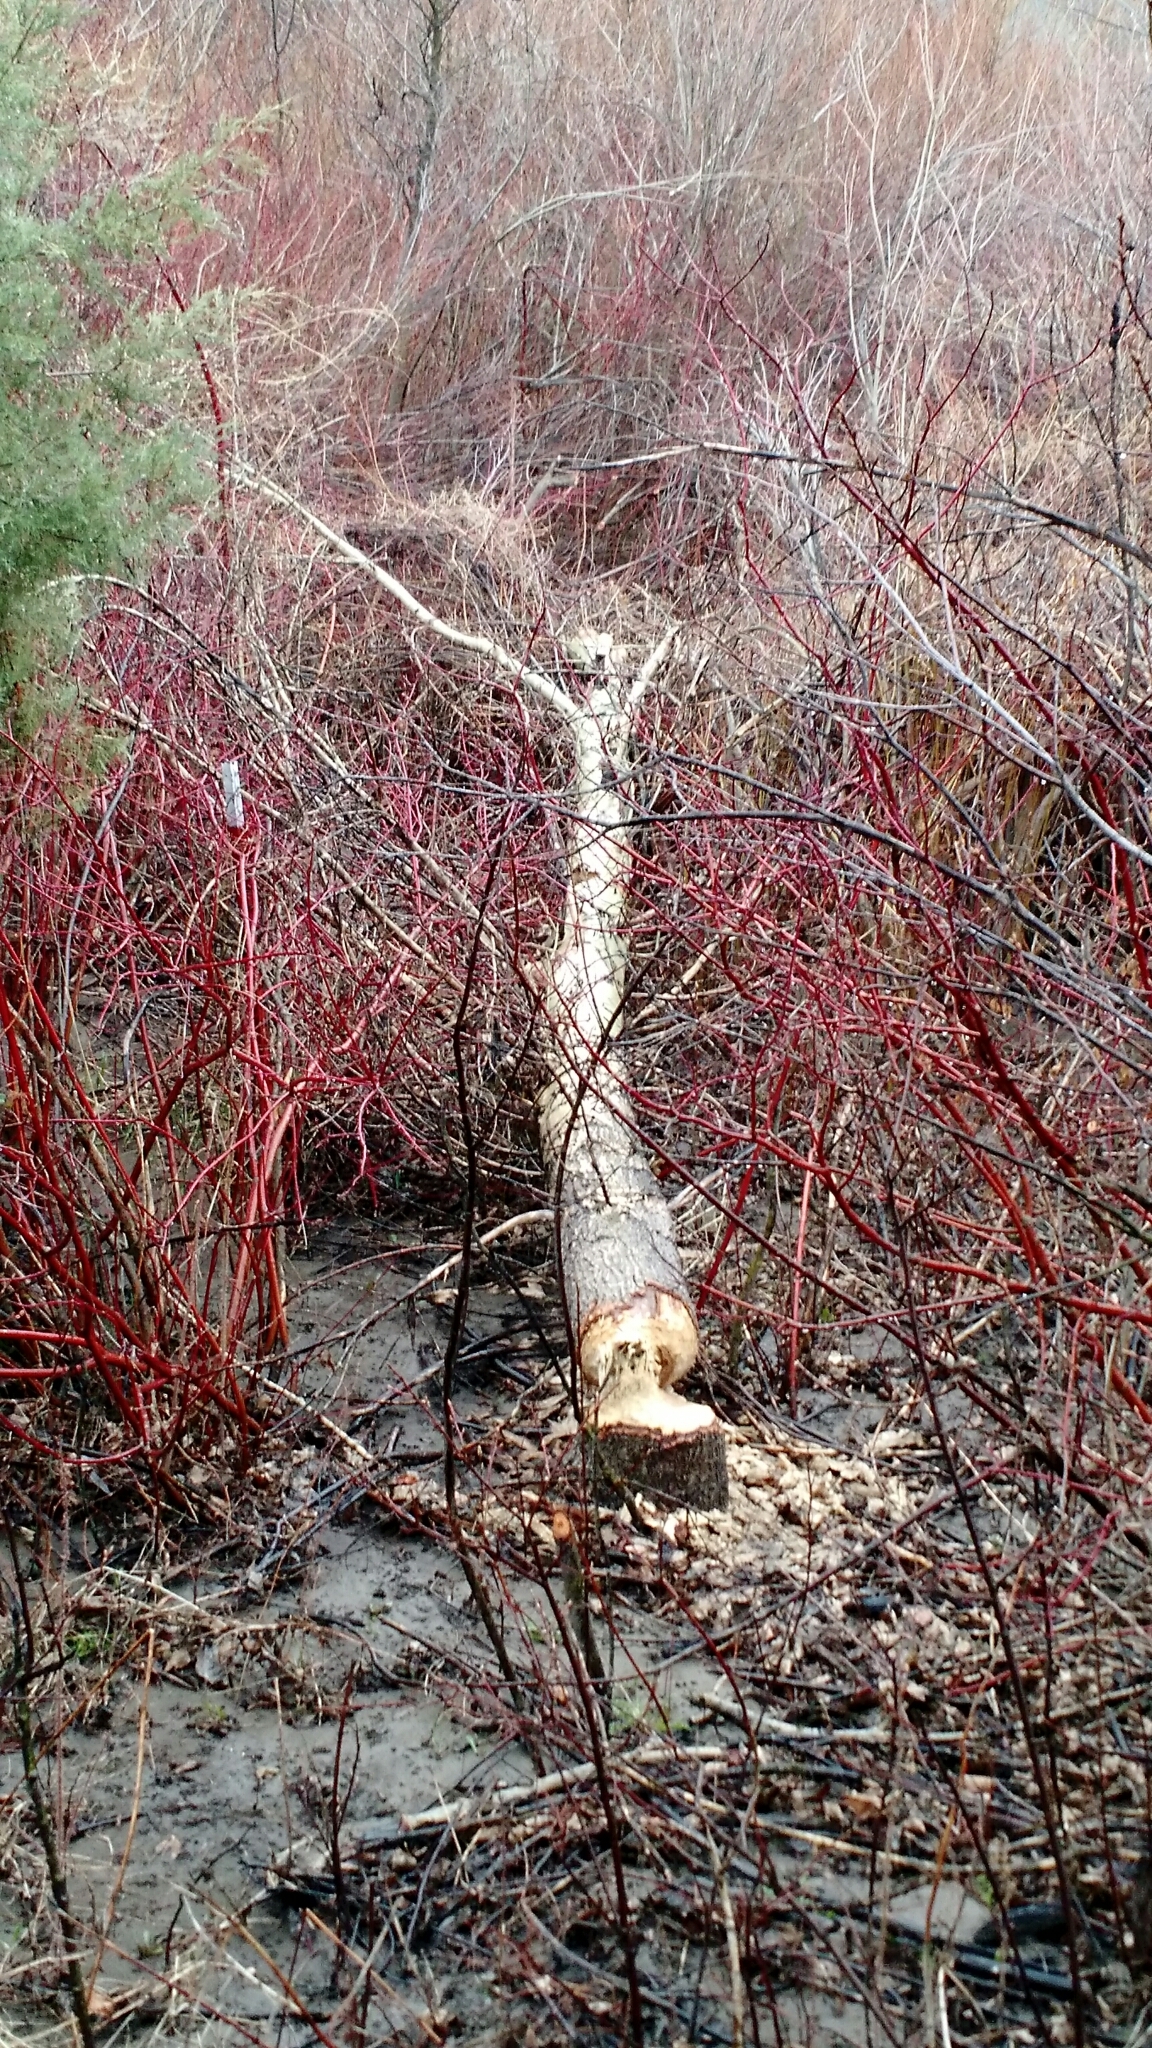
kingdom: Animalia
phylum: Chordata
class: Mammalia
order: Rodentia
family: Castoridae
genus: Castor
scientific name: Castor canadensis
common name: American beaver
